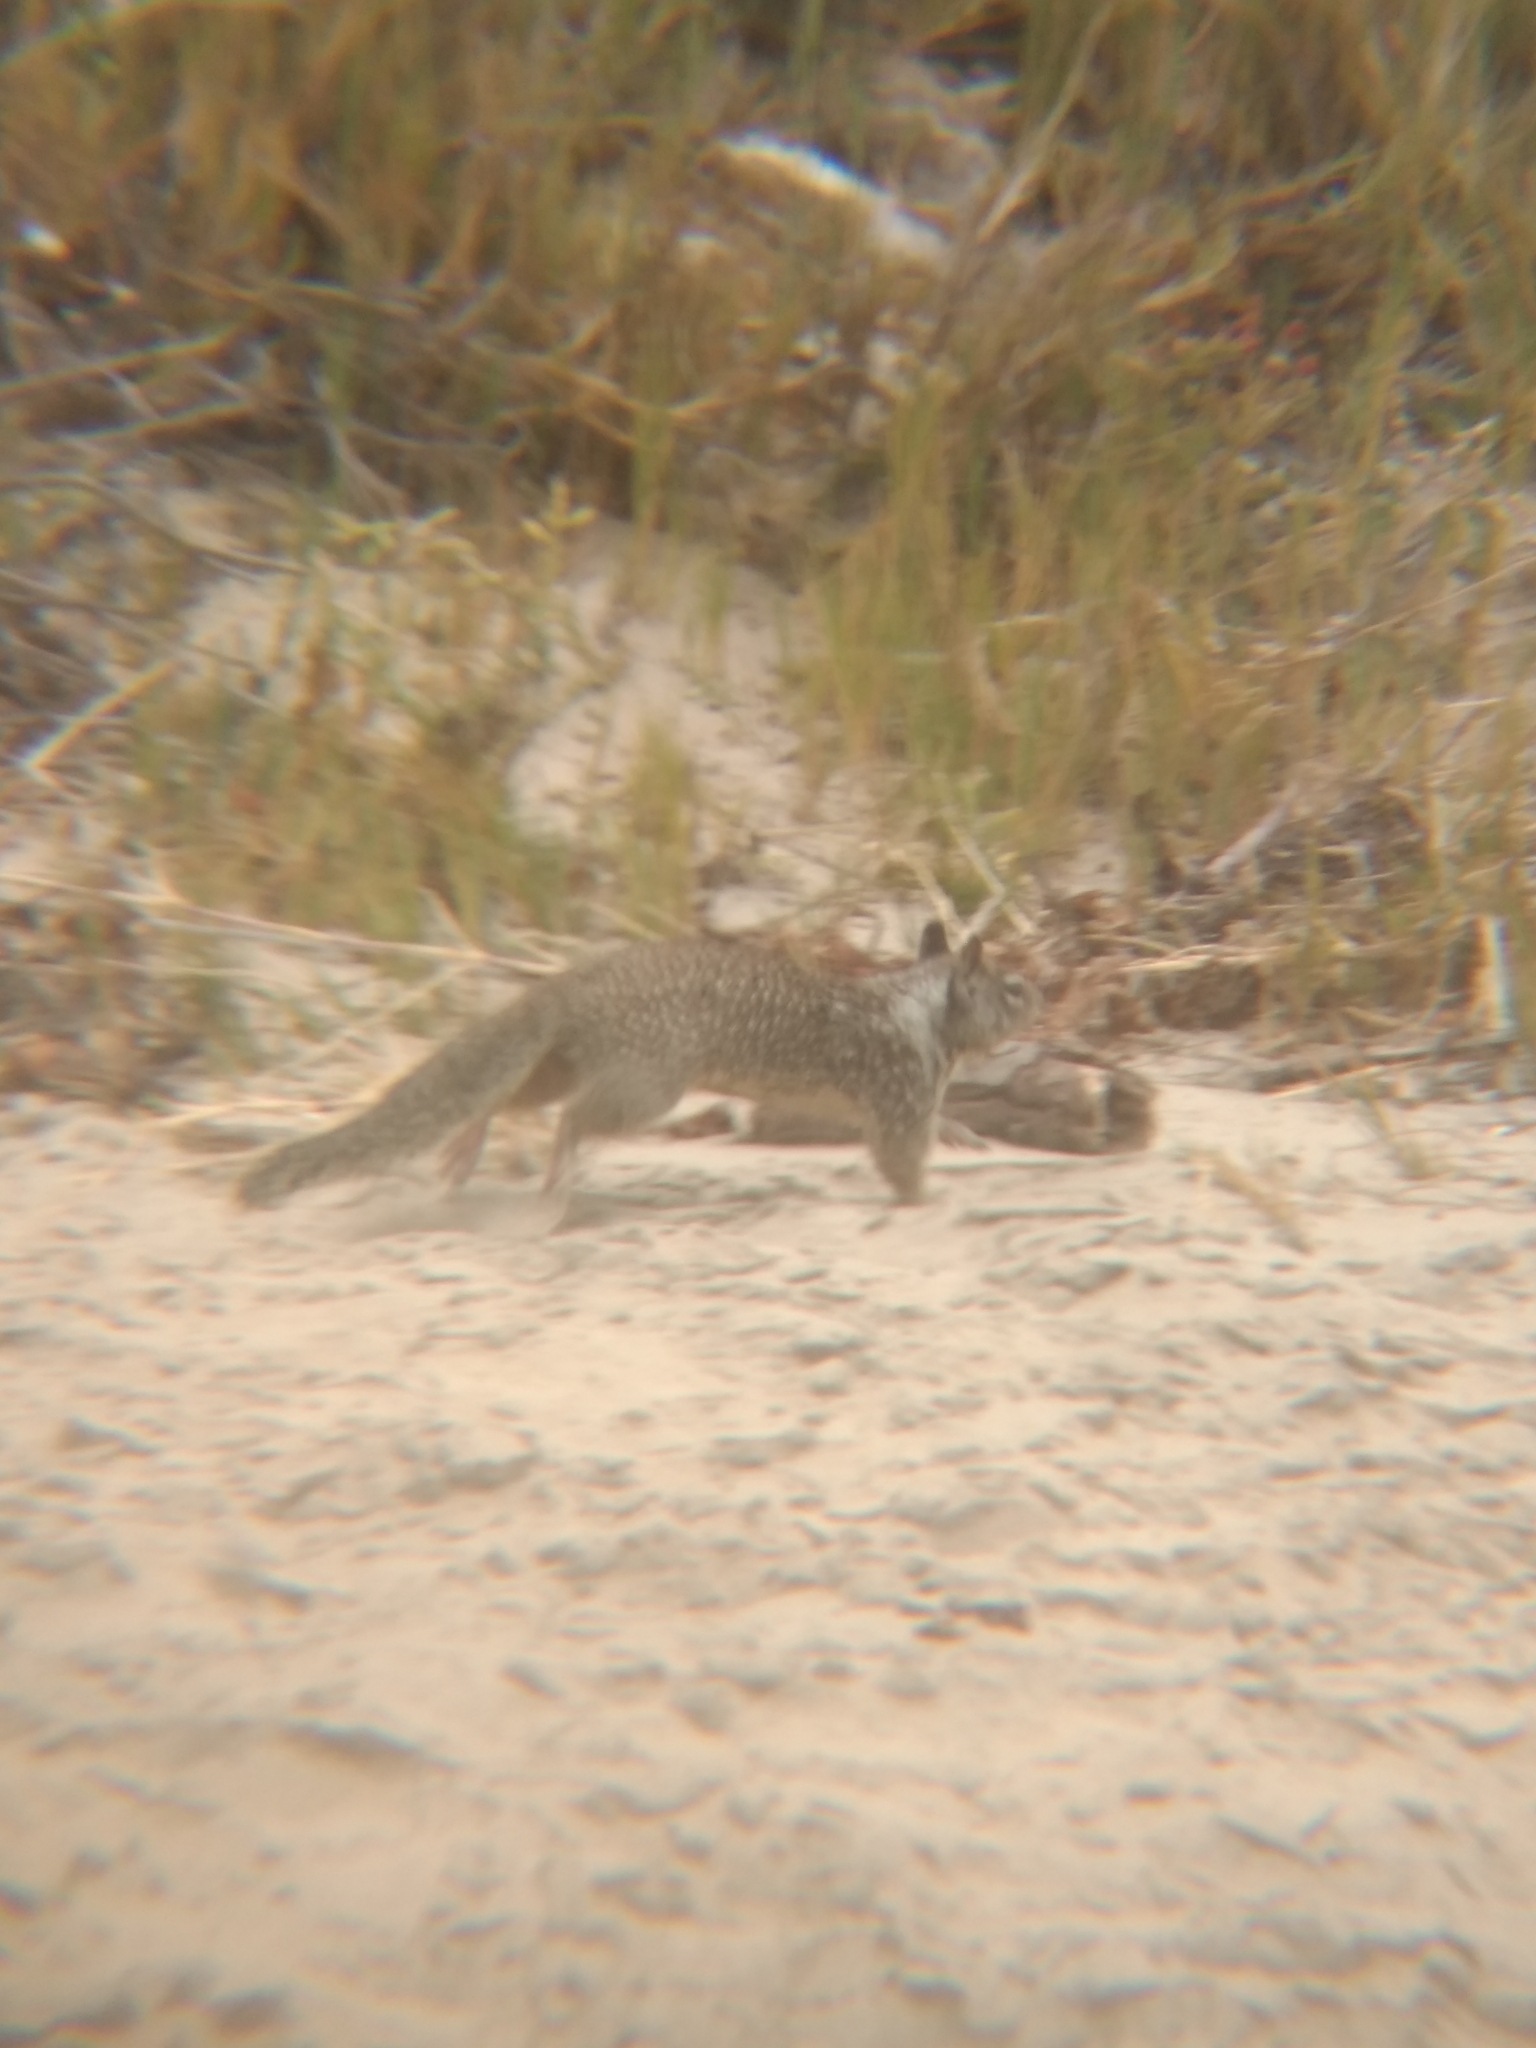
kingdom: Animalia
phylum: Chordata
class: Mammalia
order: Rodentia
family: Sciuridae
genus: Otospermophilus
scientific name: Otospermophilus beecheyi
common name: California ground squirrel
